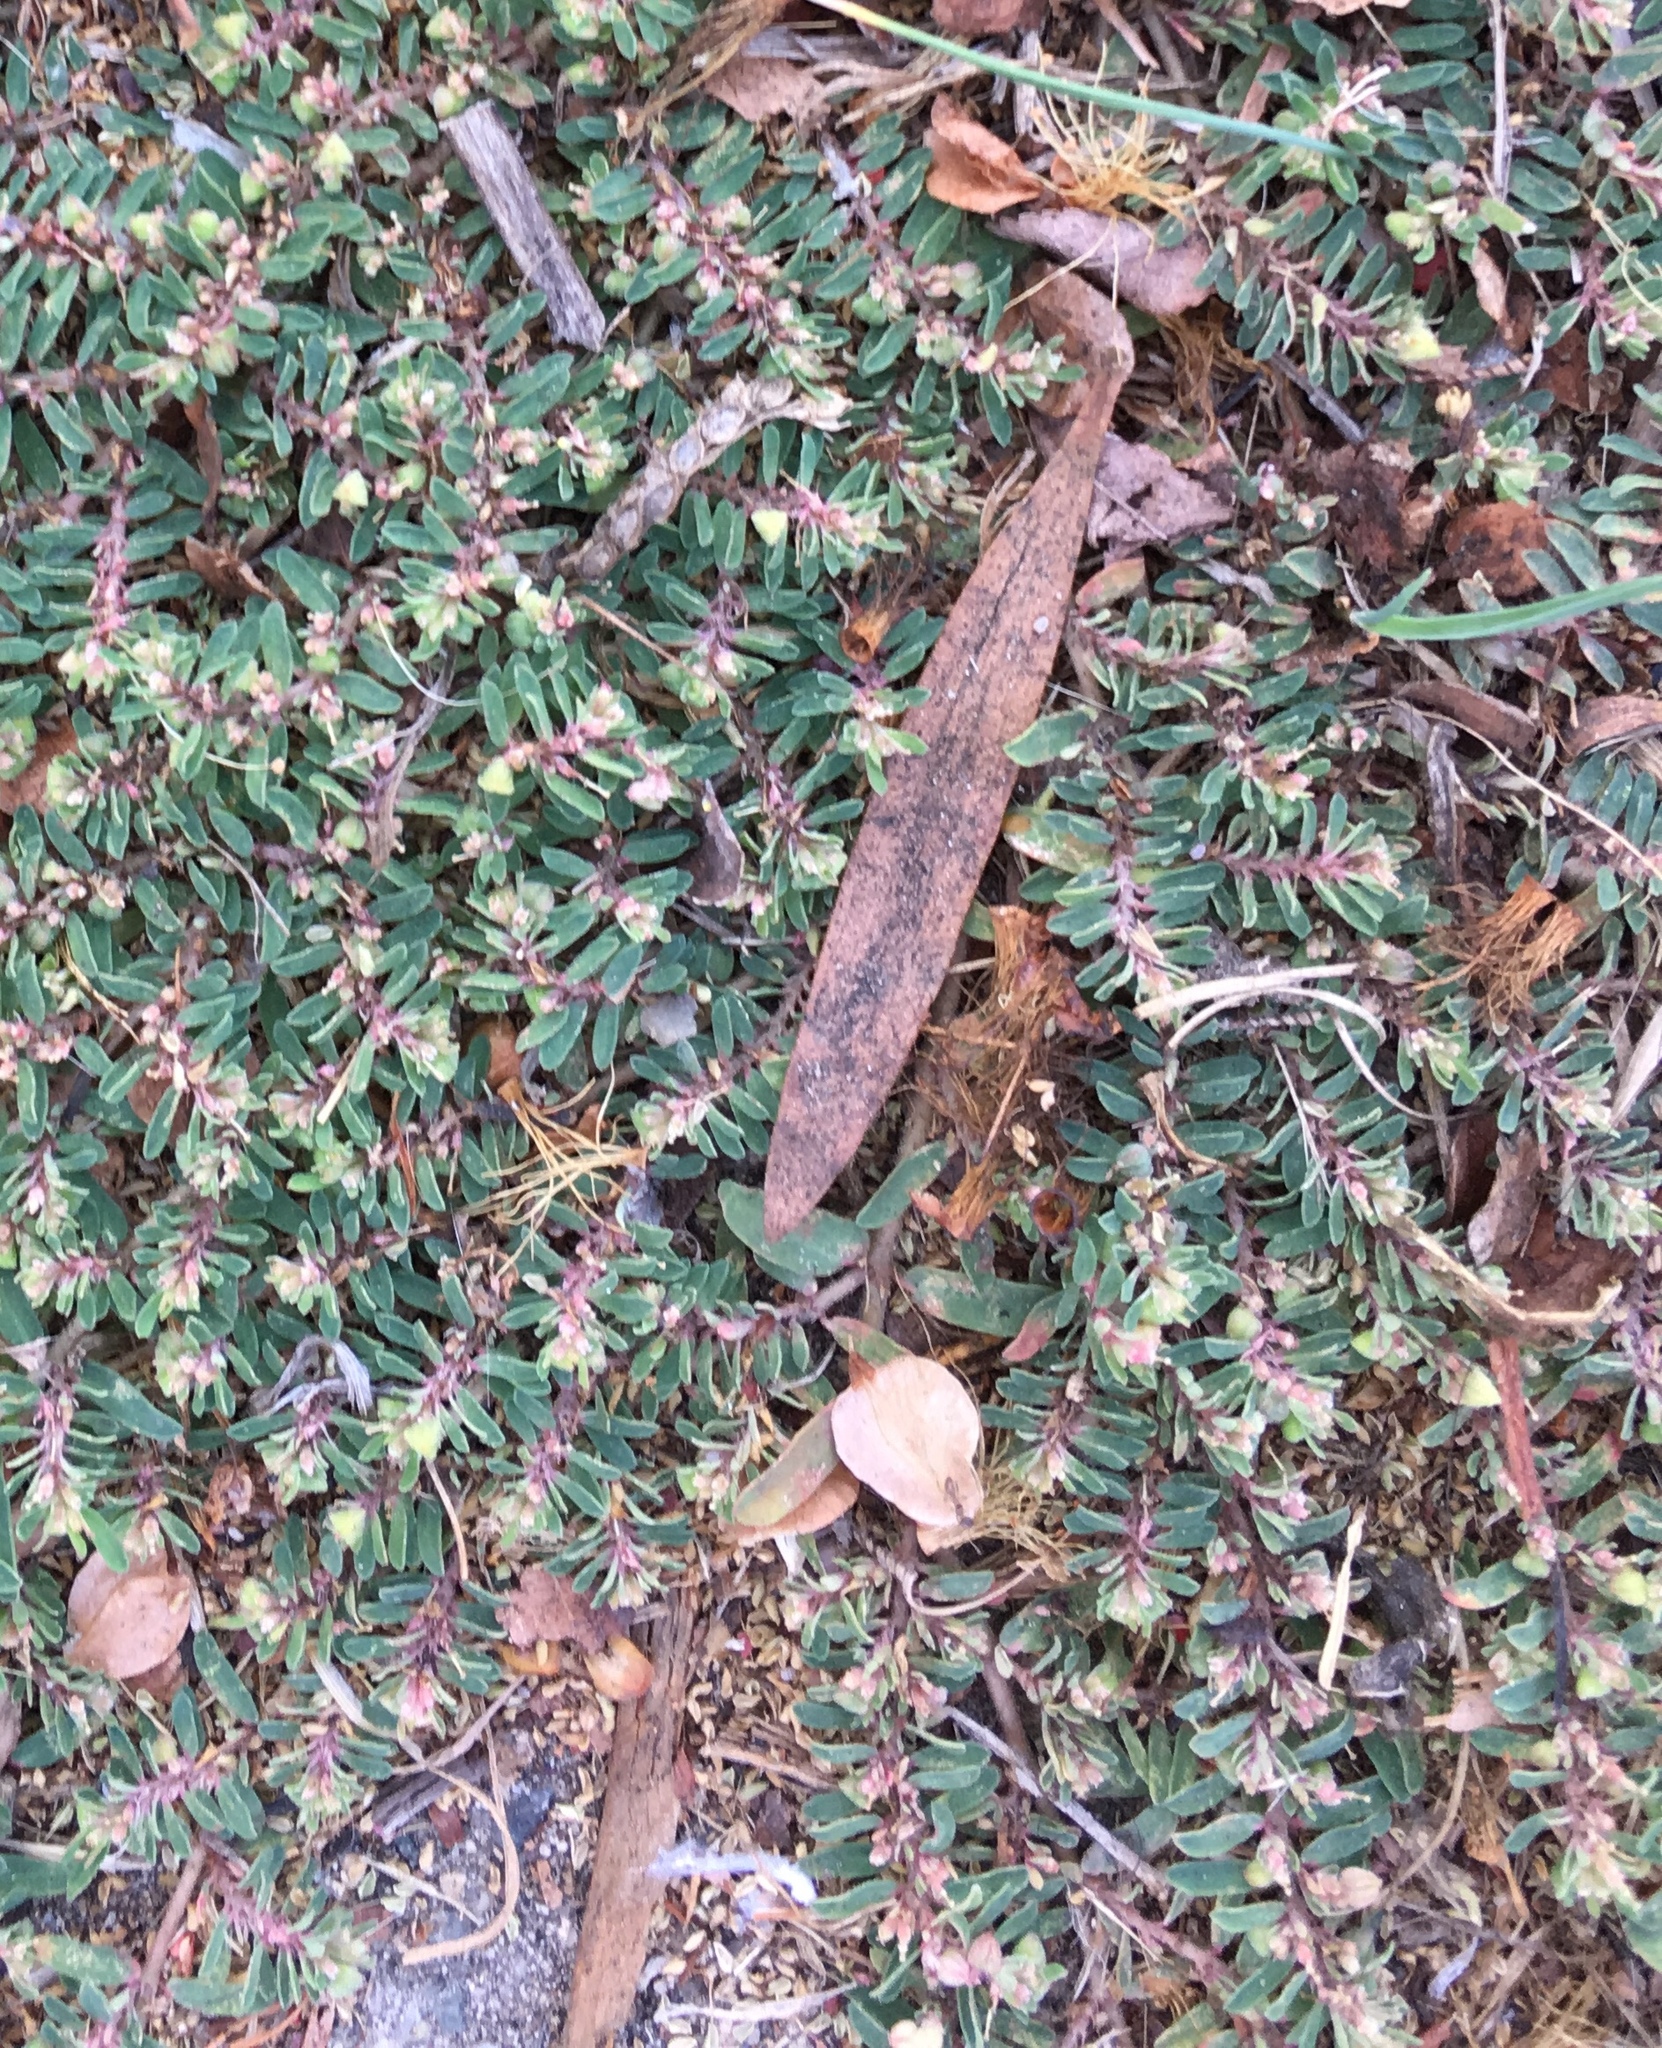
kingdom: Plantae
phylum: Tracheophyta
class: Magnoliopsida
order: Malpighiales
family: Euphorbiaceae
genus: Euphorbia
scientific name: Euphorbia maculata
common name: Spotted spurge
